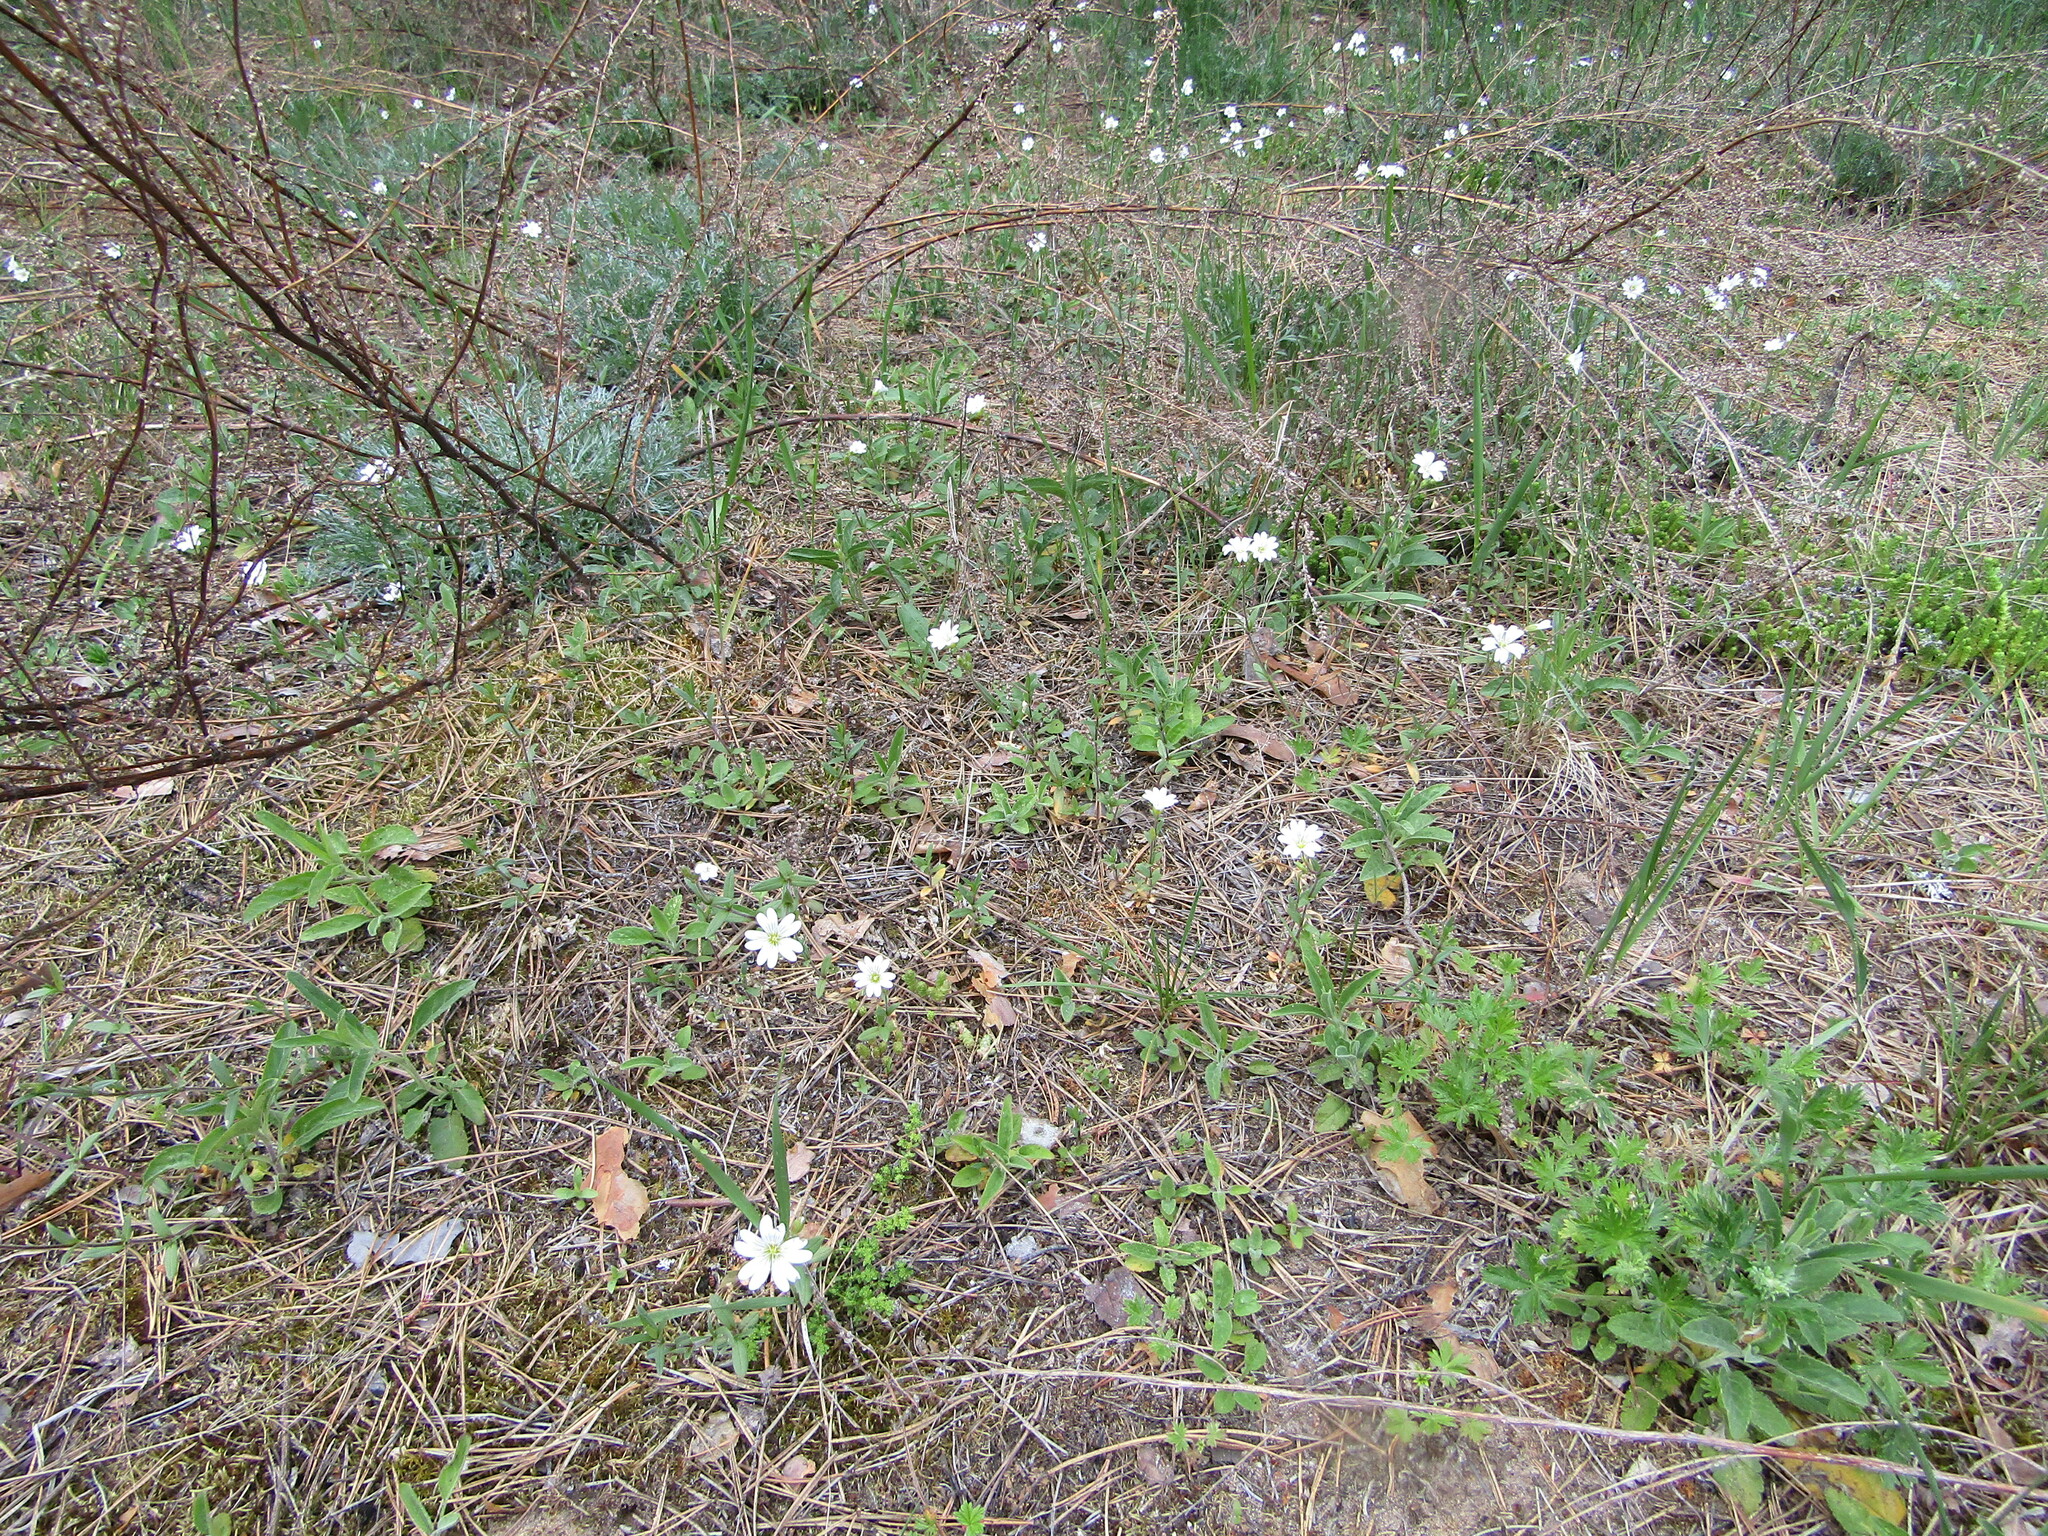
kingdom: Plantae
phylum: Tracheophyta
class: Magnoliopsida
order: Caryophyllales
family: Caryophyllaceae
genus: Cerastium
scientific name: Cerastium arvense
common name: Field mouse-ear
